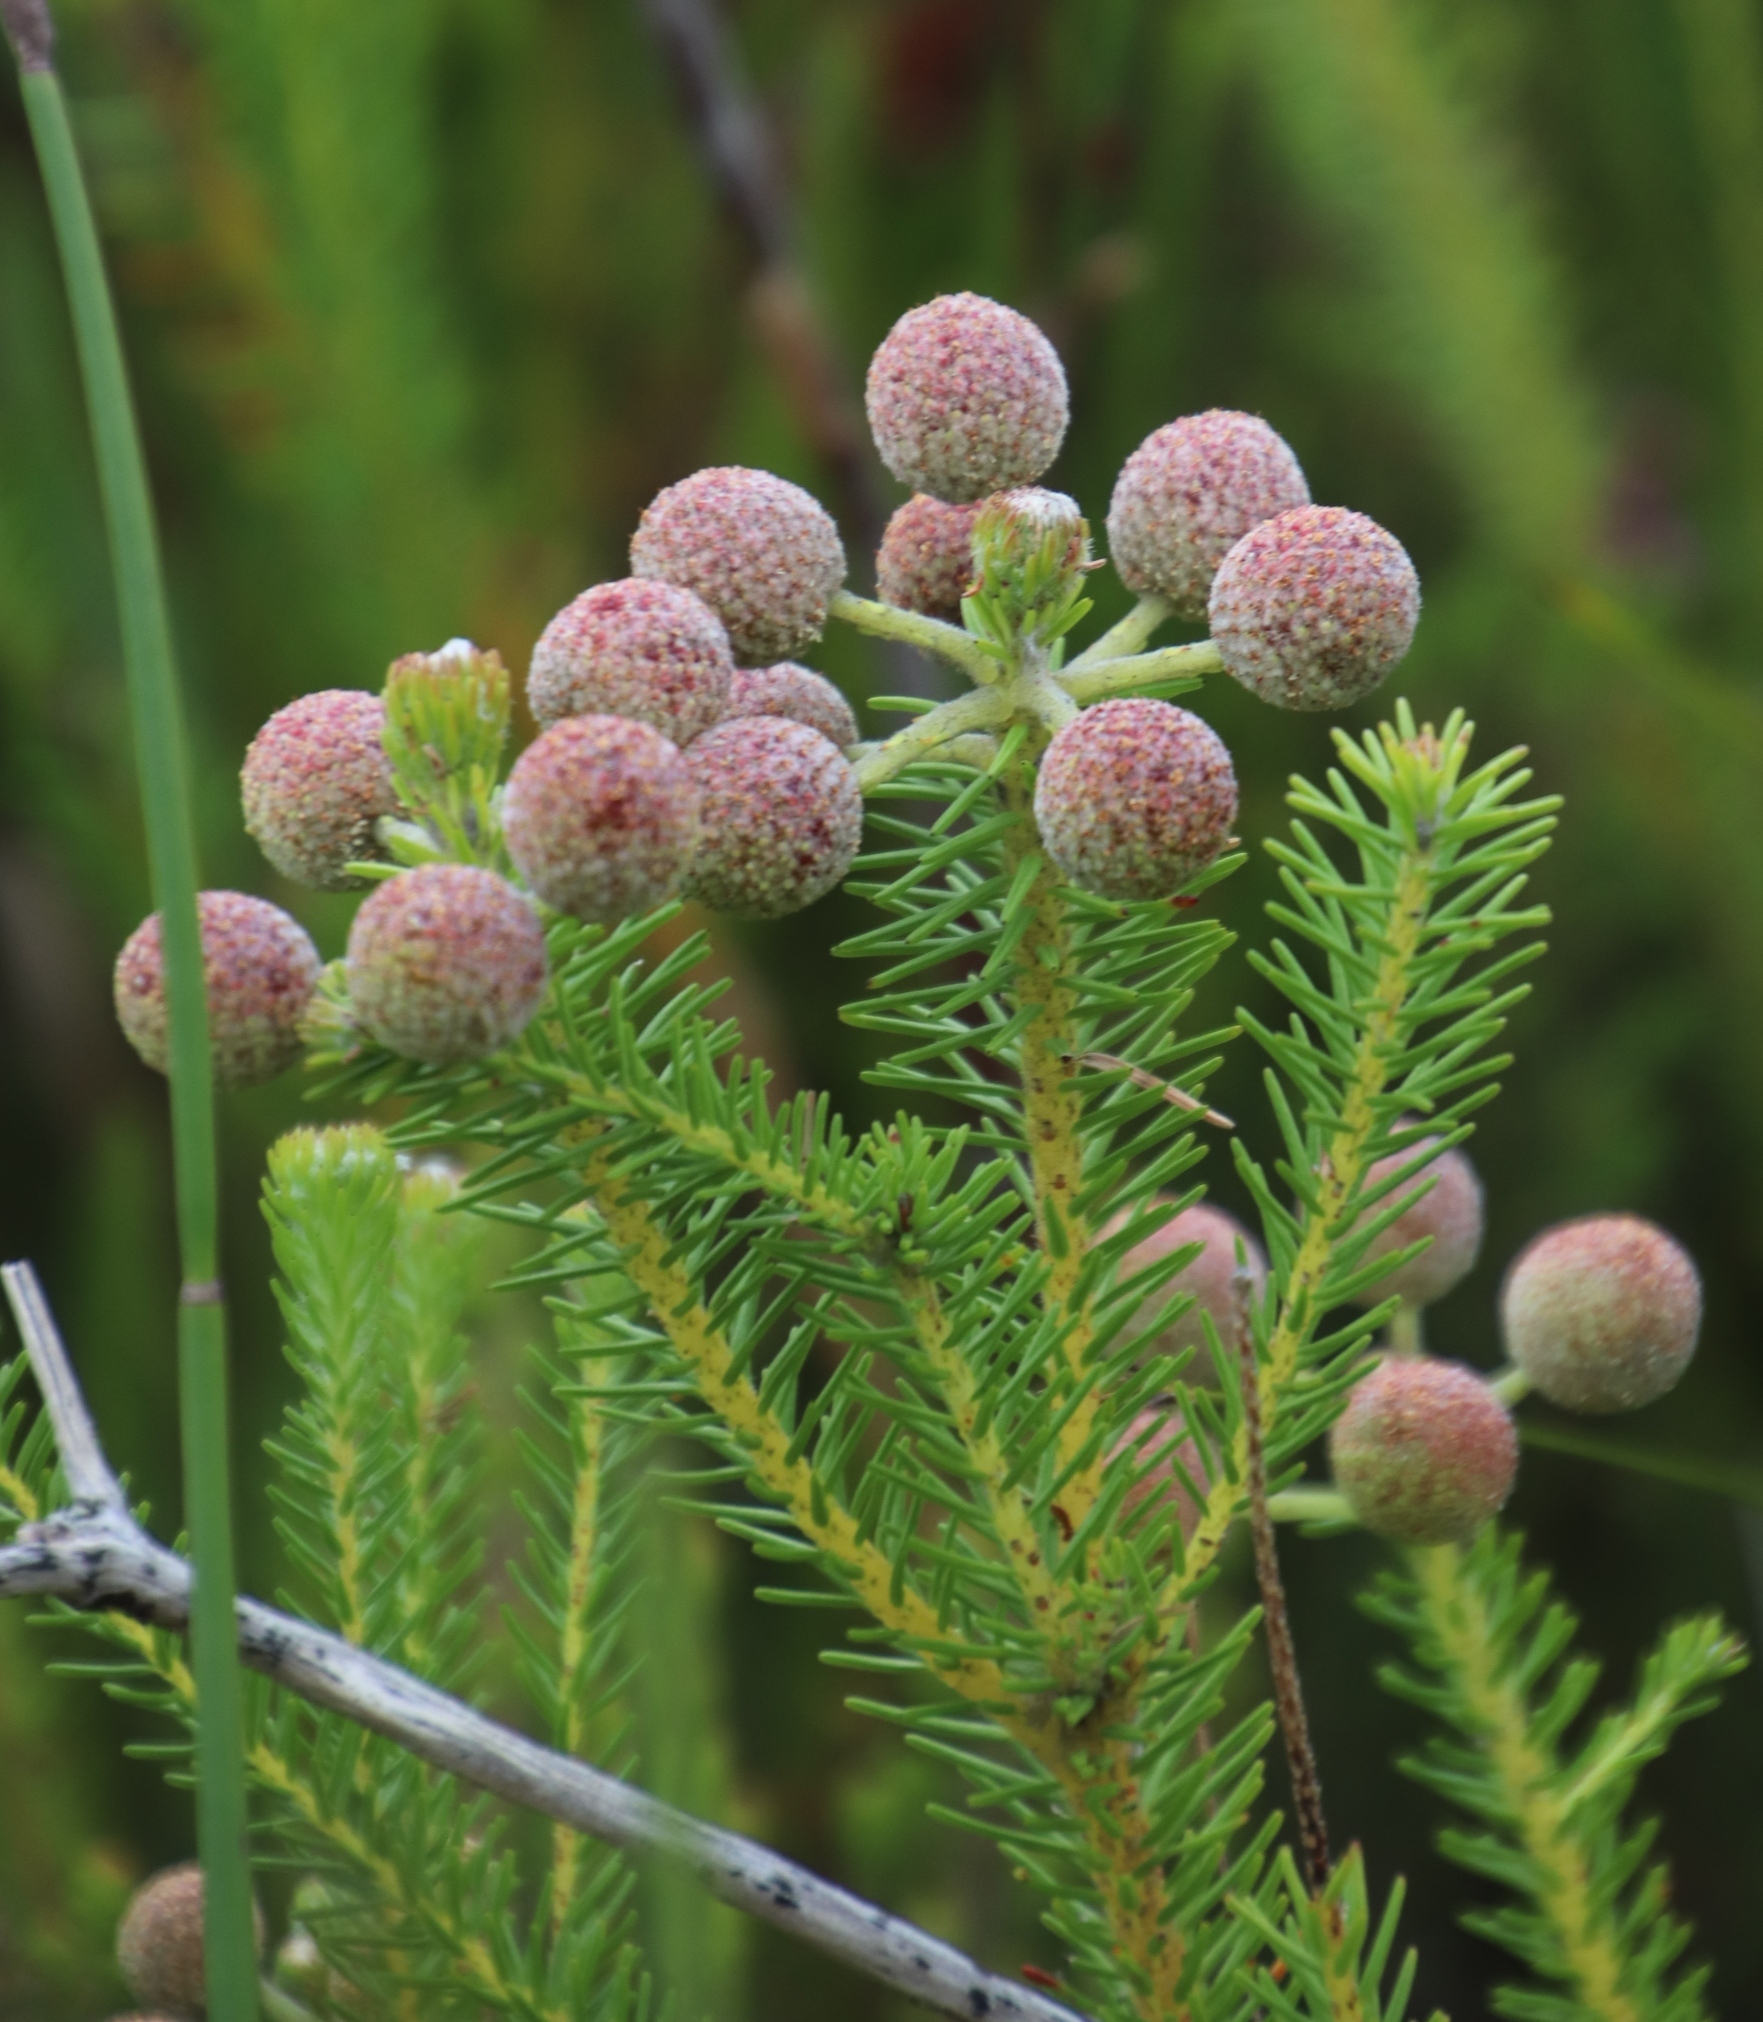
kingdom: Plantae
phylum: Tracheophyta
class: Magnoliopsida
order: Bruniales
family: Bruniaceae
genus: Berzelia
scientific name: Berzelia squarrosa
